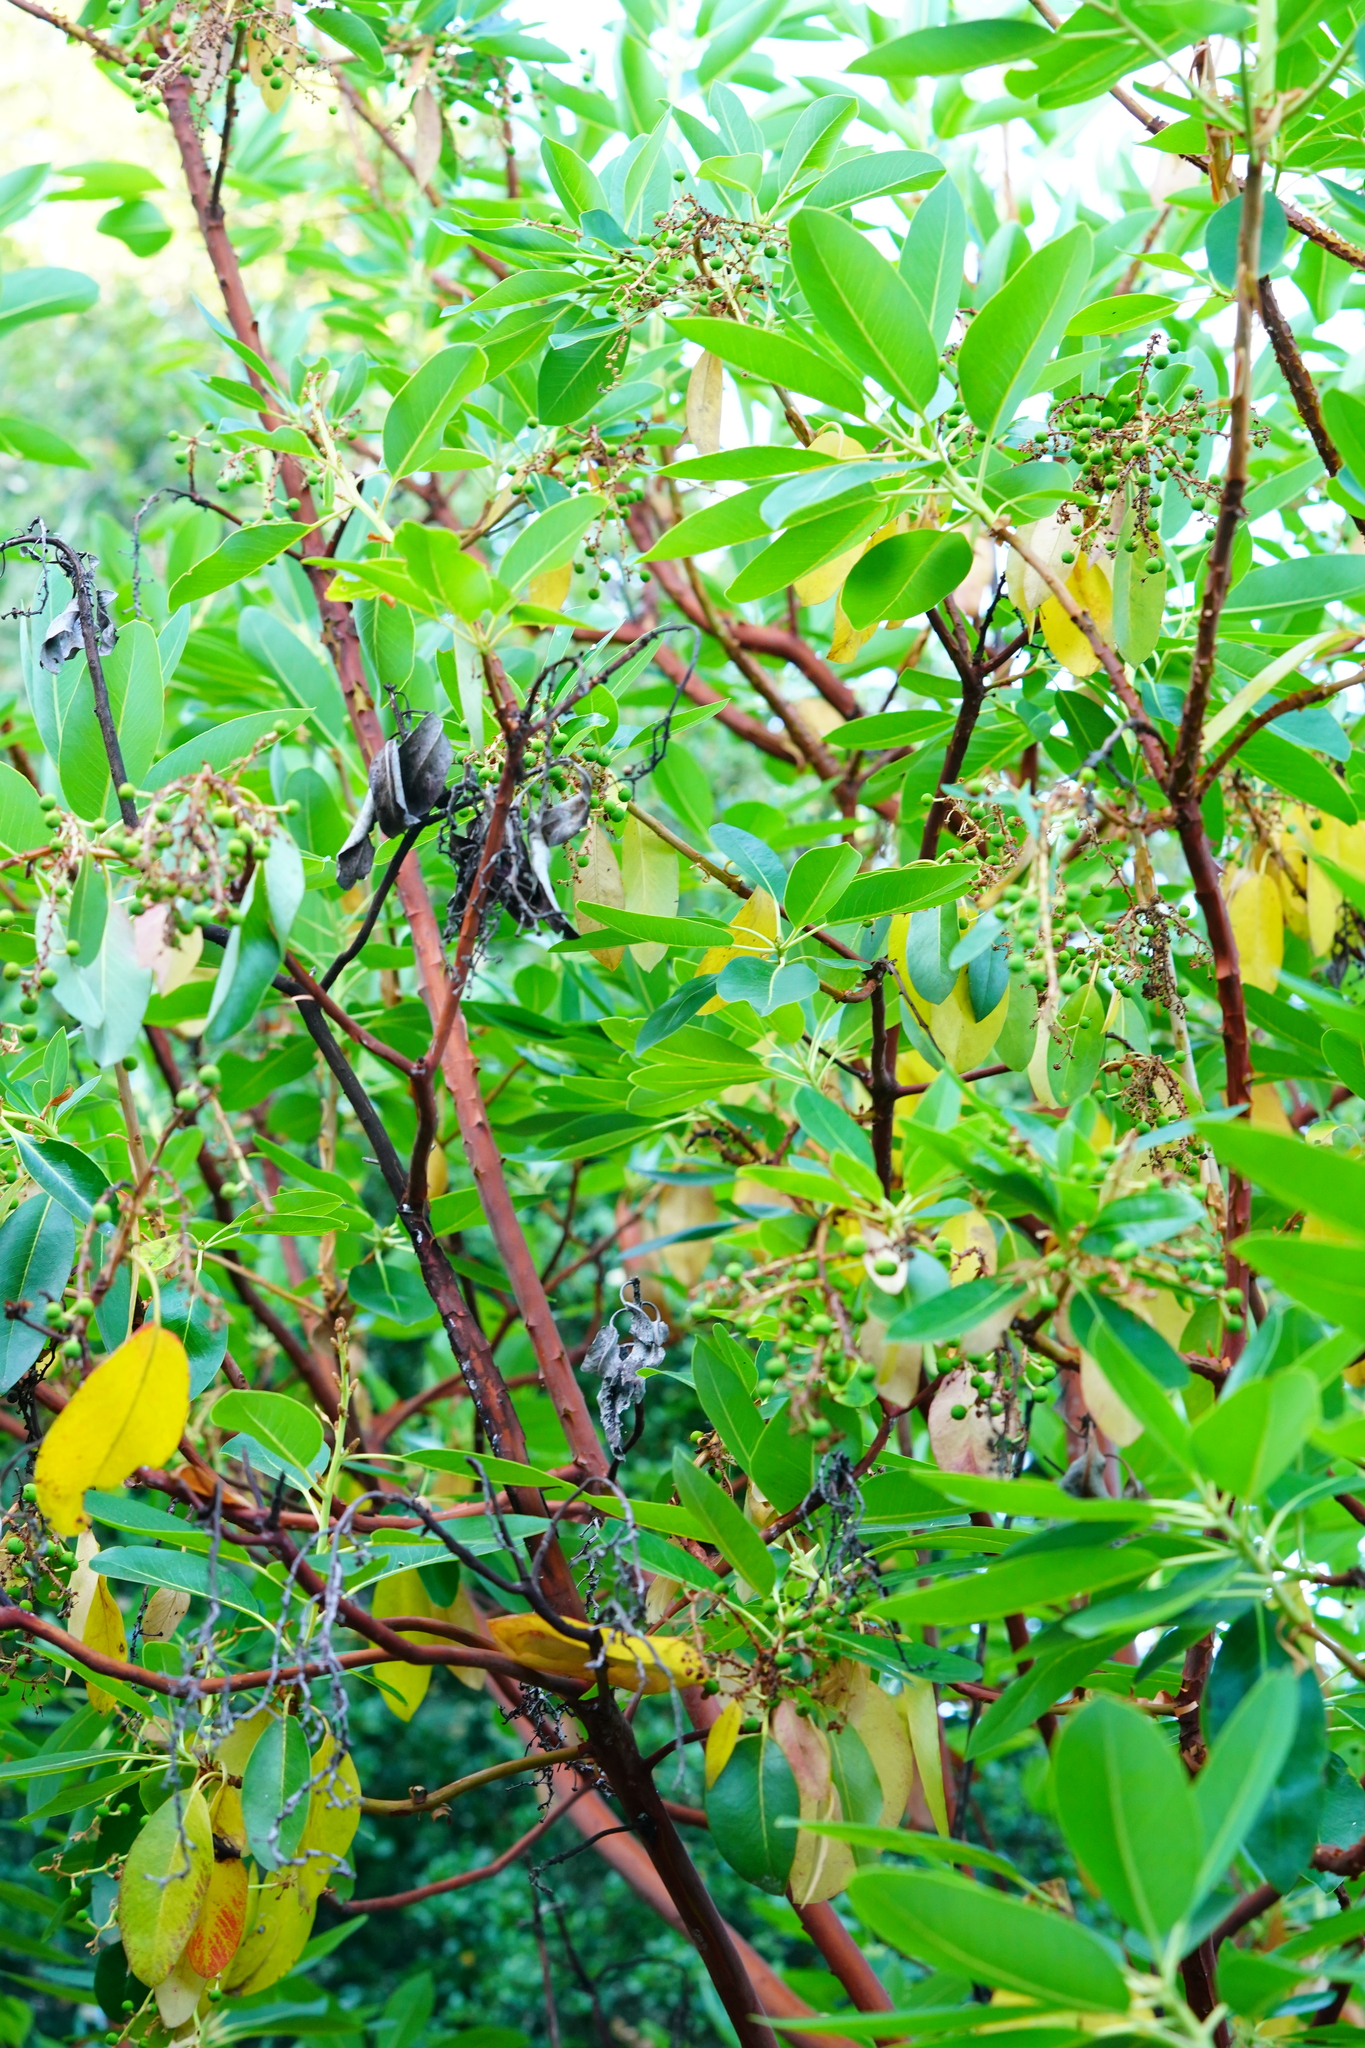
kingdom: Plantae
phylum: Tracheophyta
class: Magnoliopsida
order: Ericales
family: Ericaceae
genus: Arbutus
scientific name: Arbutus menziesii
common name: Pacific madrone
